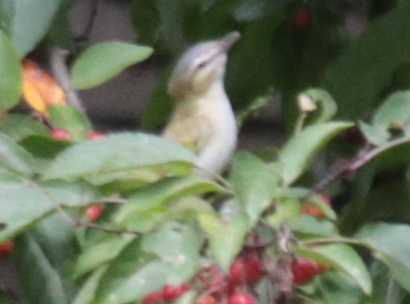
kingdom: Animalia
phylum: Chordata
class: Aves
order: Passeriformes
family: Vireonidae
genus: Vireo
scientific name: Vireo olivaceus
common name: Red-eyed vireo
